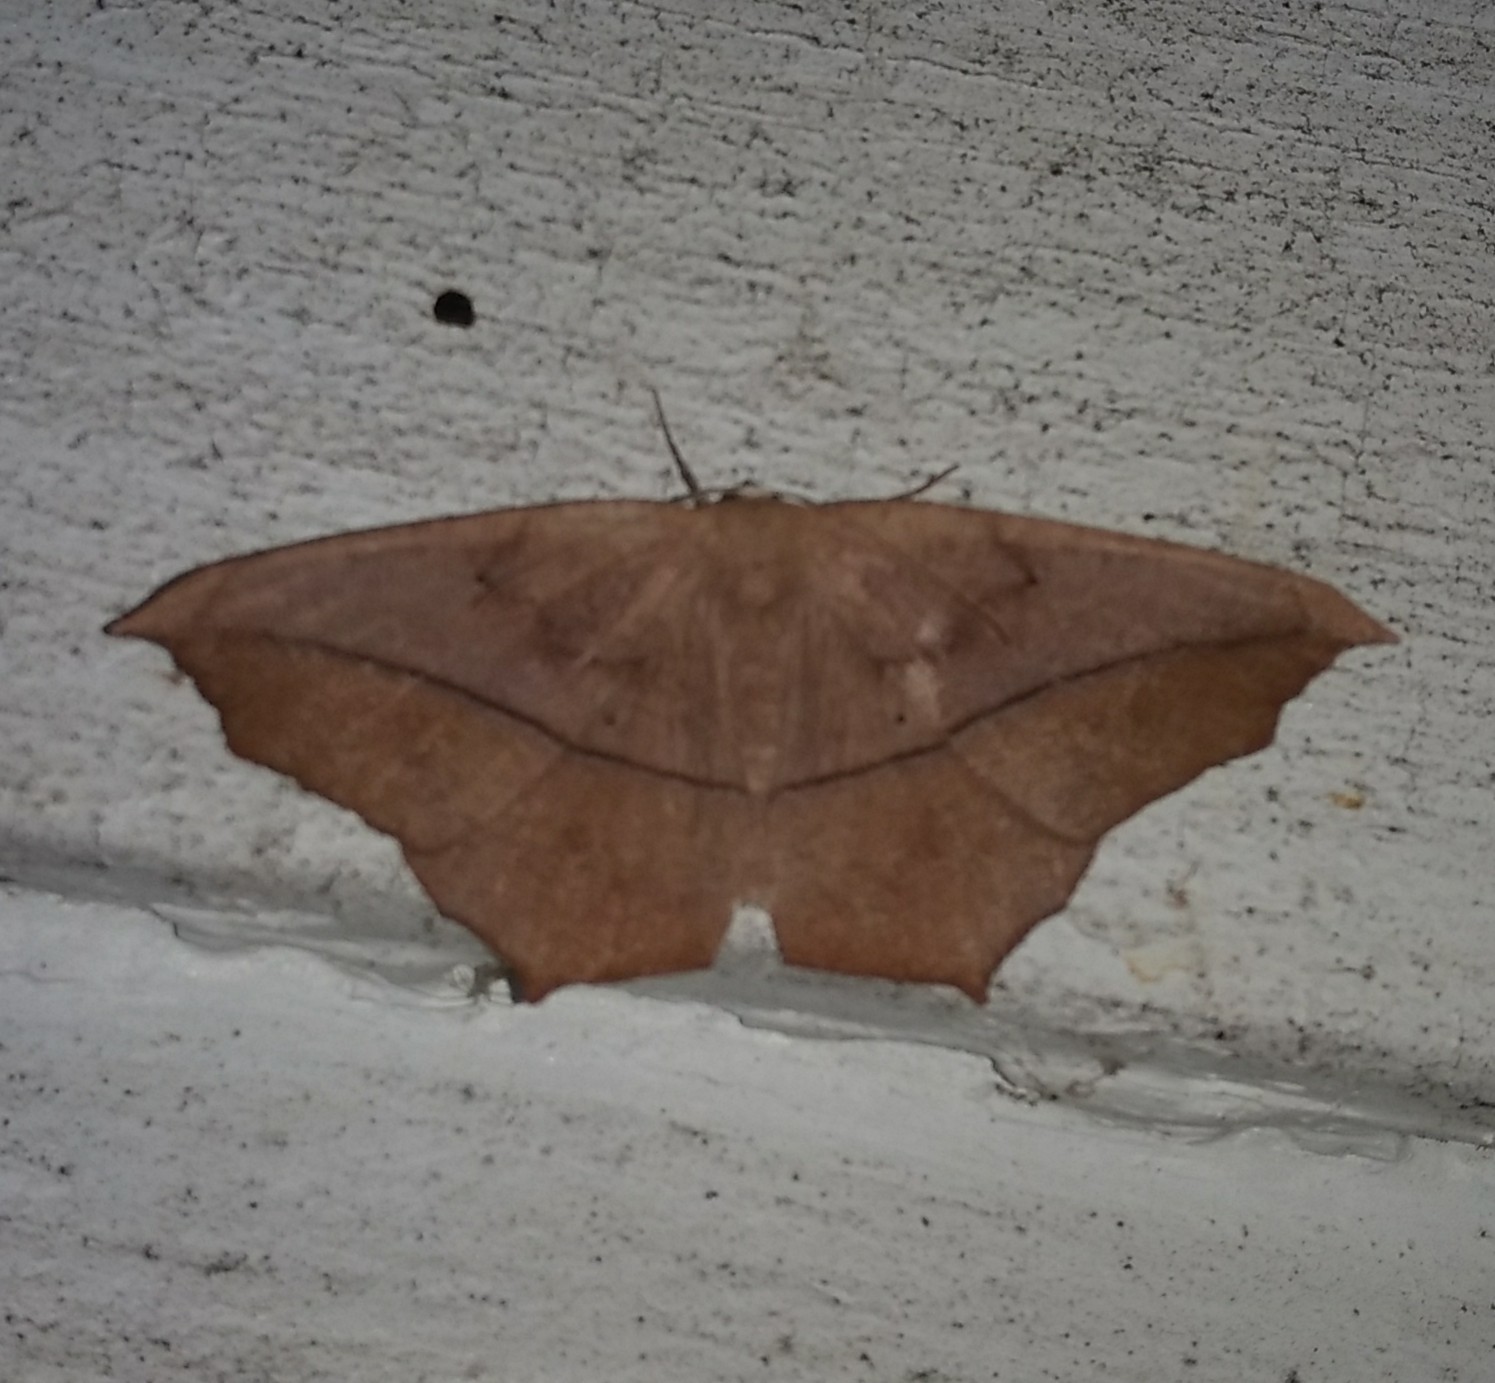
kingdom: Animalia
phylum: Arthropoda
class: Insecta
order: Lepidoptera
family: Geometridae
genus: Prochoerodes
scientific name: Prochoerodes lineola
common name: Large maple spanworm
